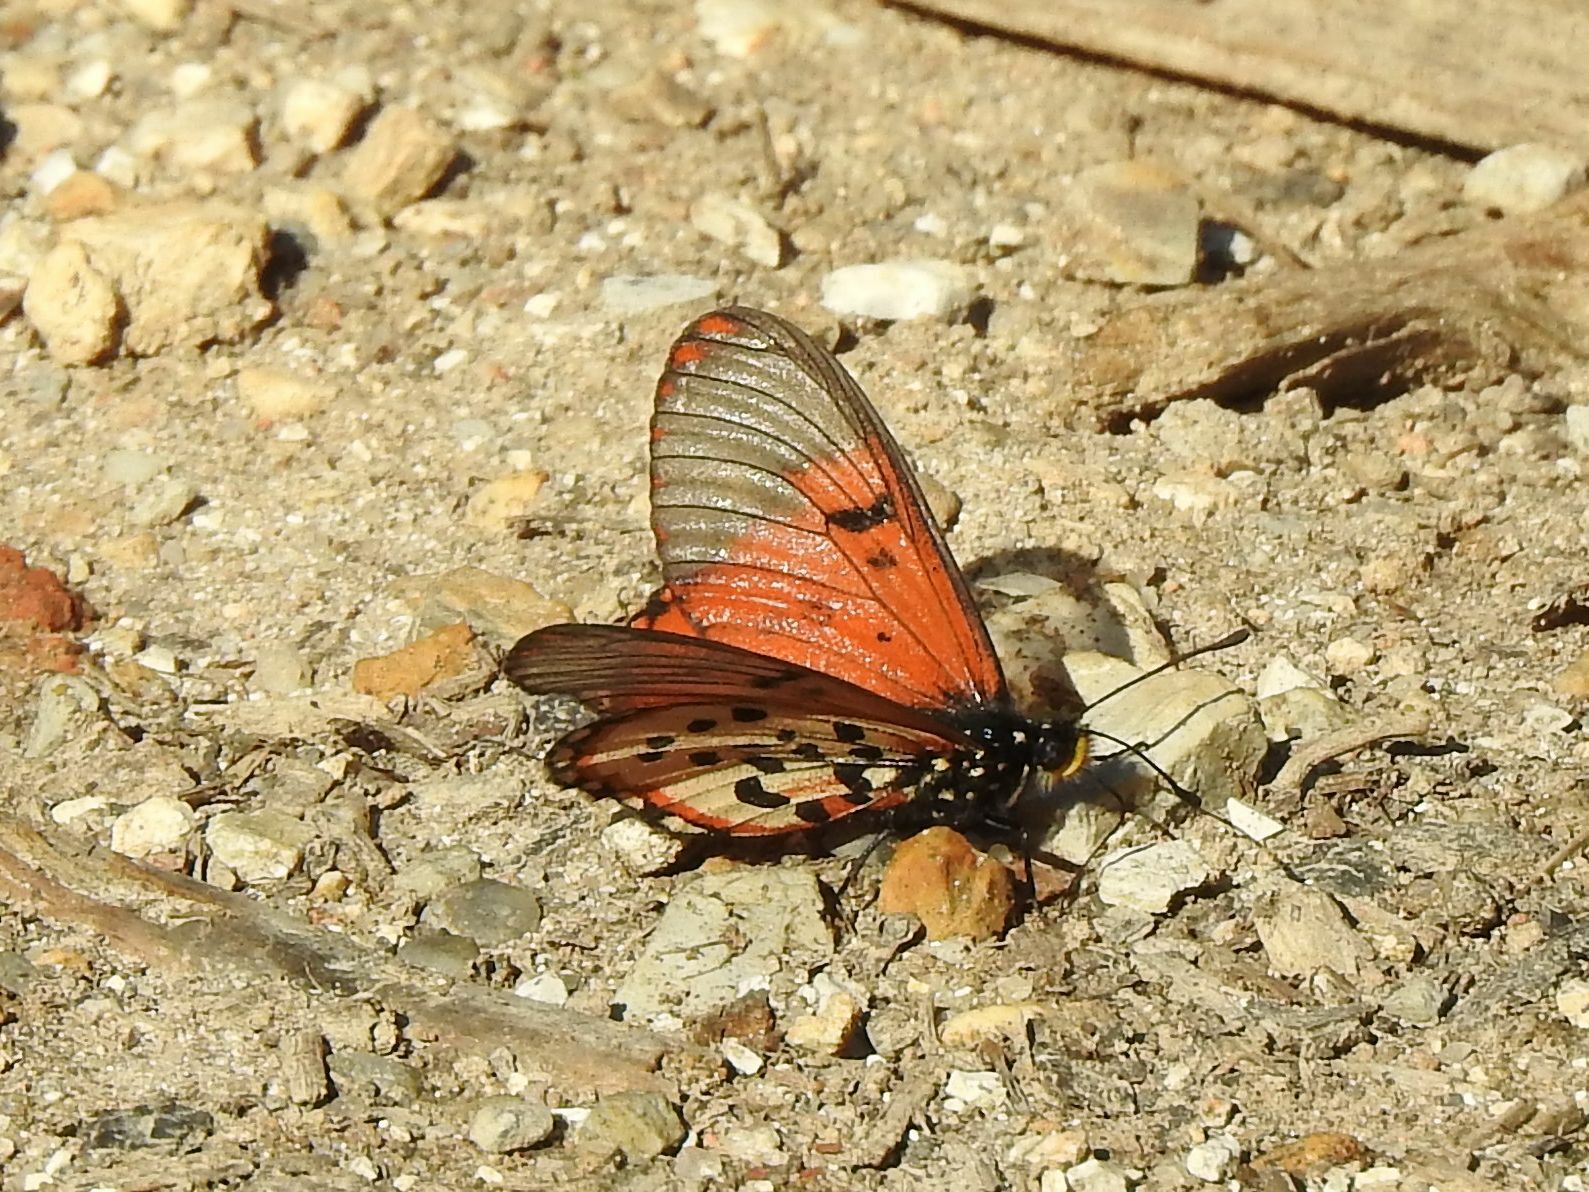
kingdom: Animalia
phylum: Arthropoda
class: Insecta
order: Lepidoptera
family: Nymphalidae
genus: Acraea
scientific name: Acraea horta
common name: Garden acraea
